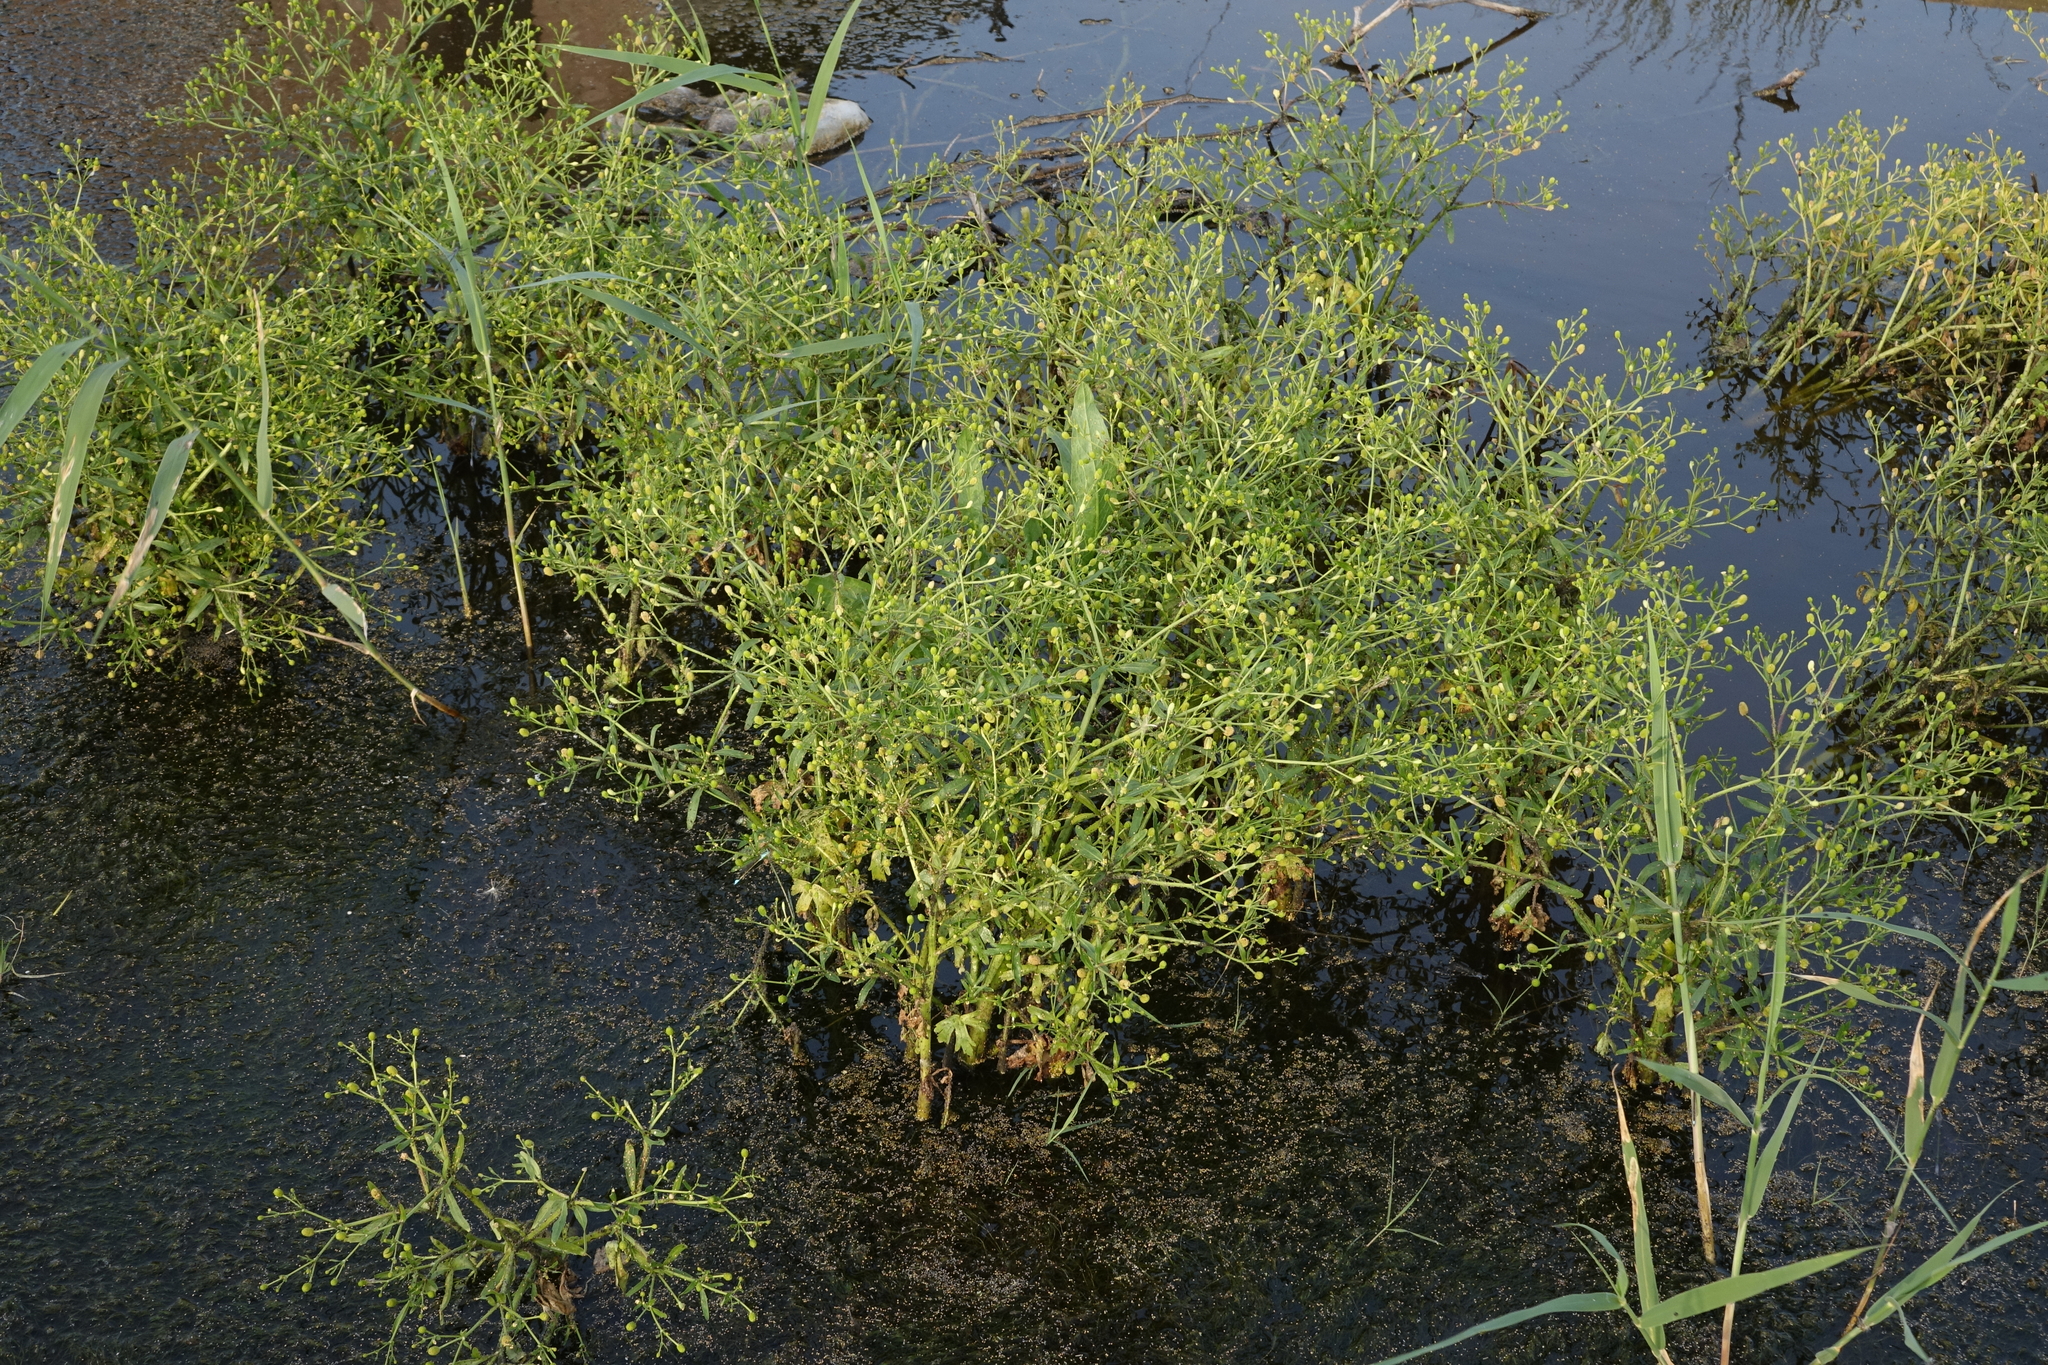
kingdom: Plantae
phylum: Tracheophyta
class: Magnoliopsida
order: Ranunculales
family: Ranunculaceae
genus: Ranunculus
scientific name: Ranunculus sceleratus
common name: Celery-leaved buttercup
